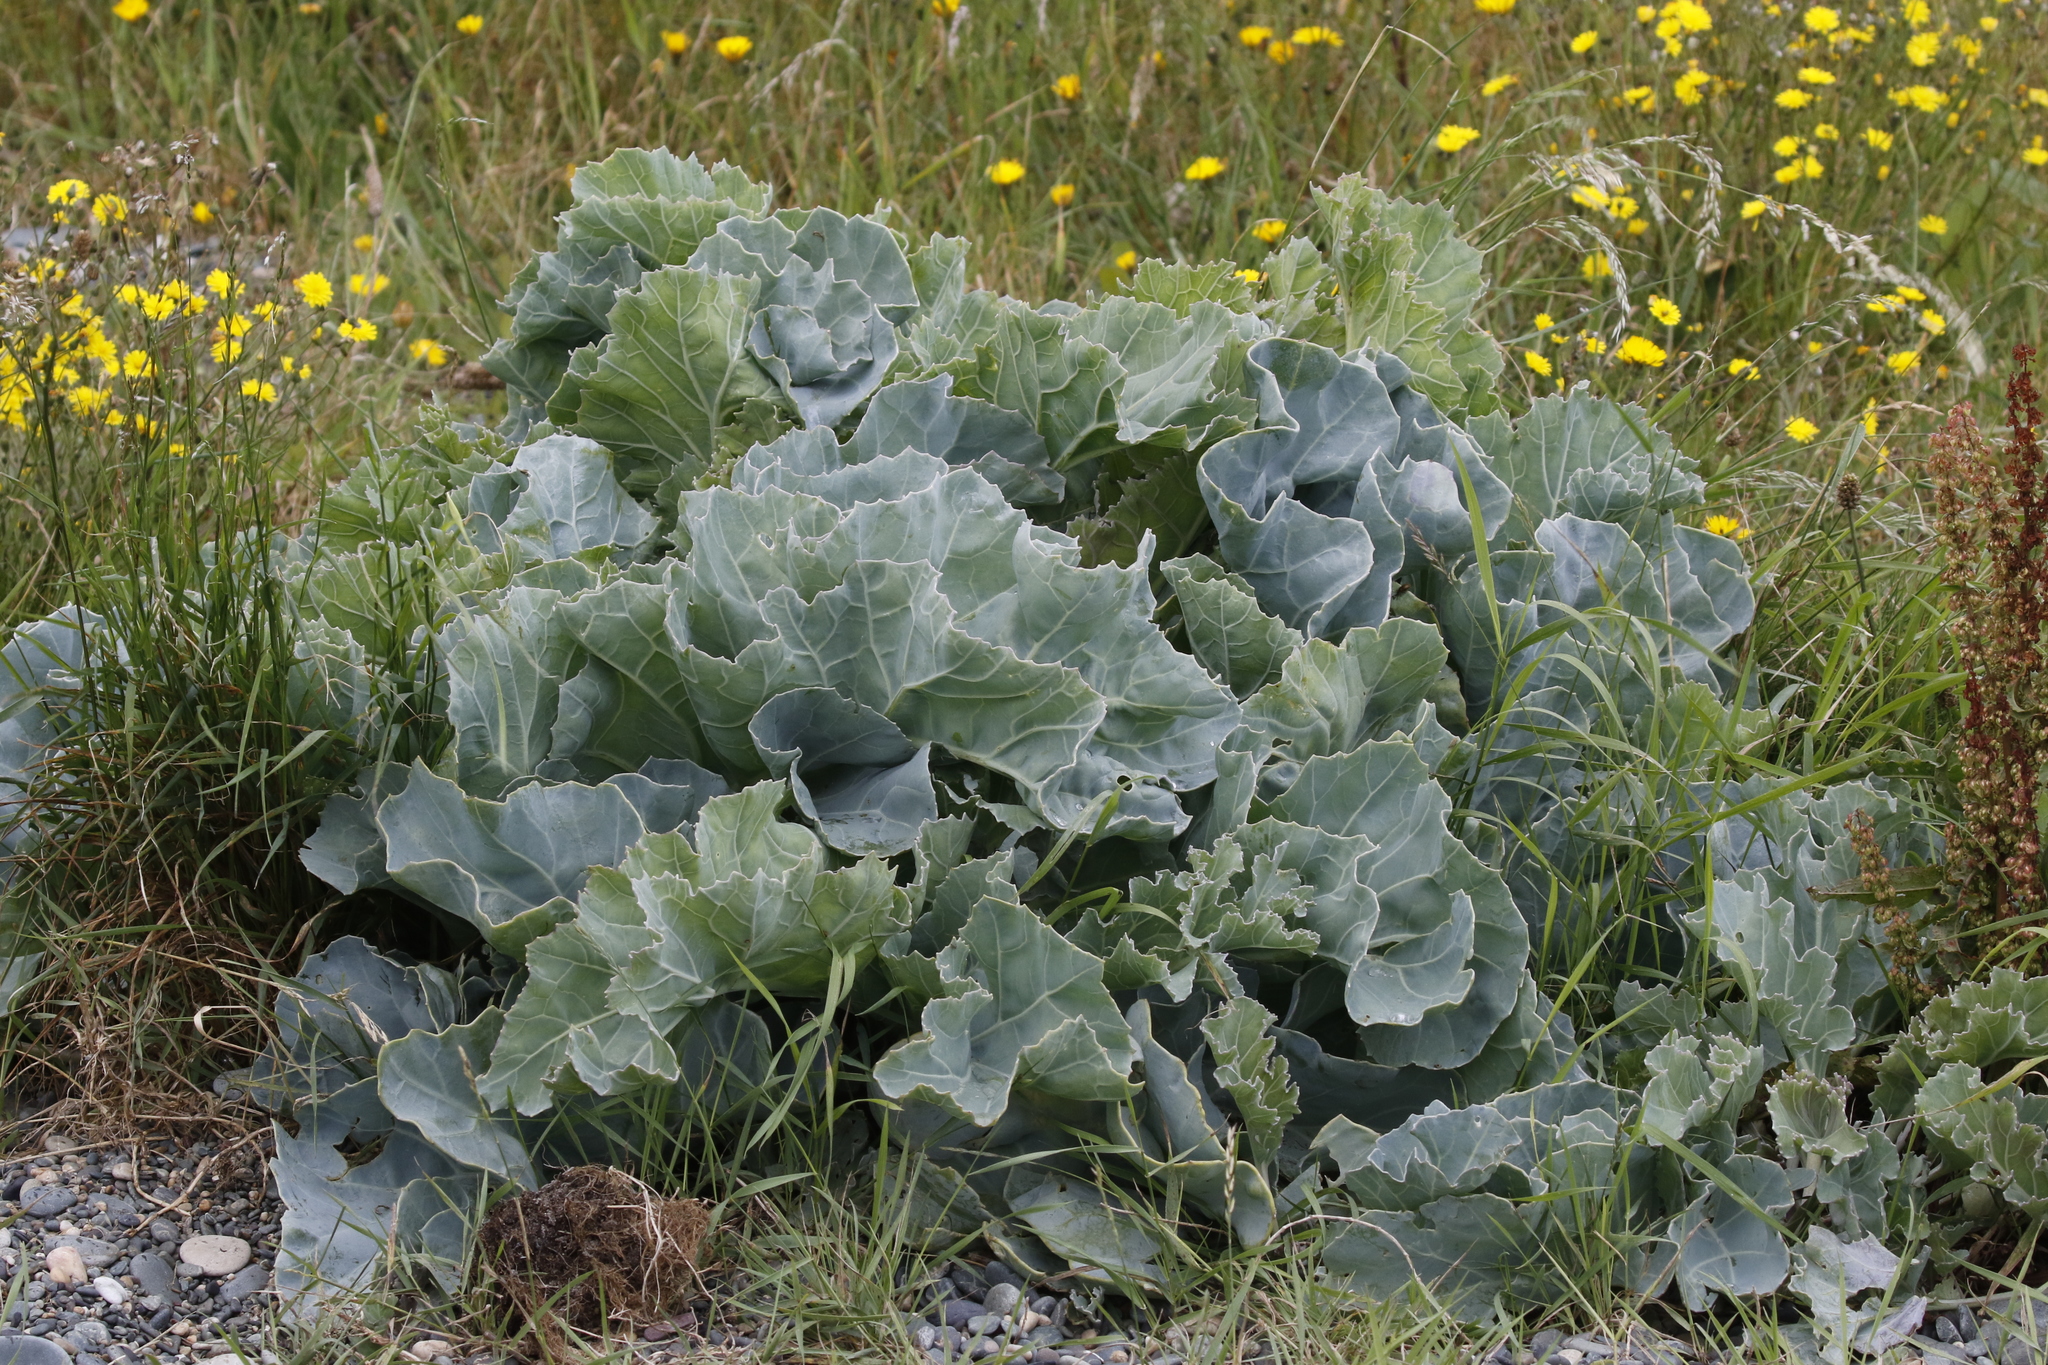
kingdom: Plantae
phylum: Tracheophyta
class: Magnoliopsida
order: Brassicales
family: Brassicaceae
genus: Crambe
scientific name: Crambe maritima
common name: Sea-kale
